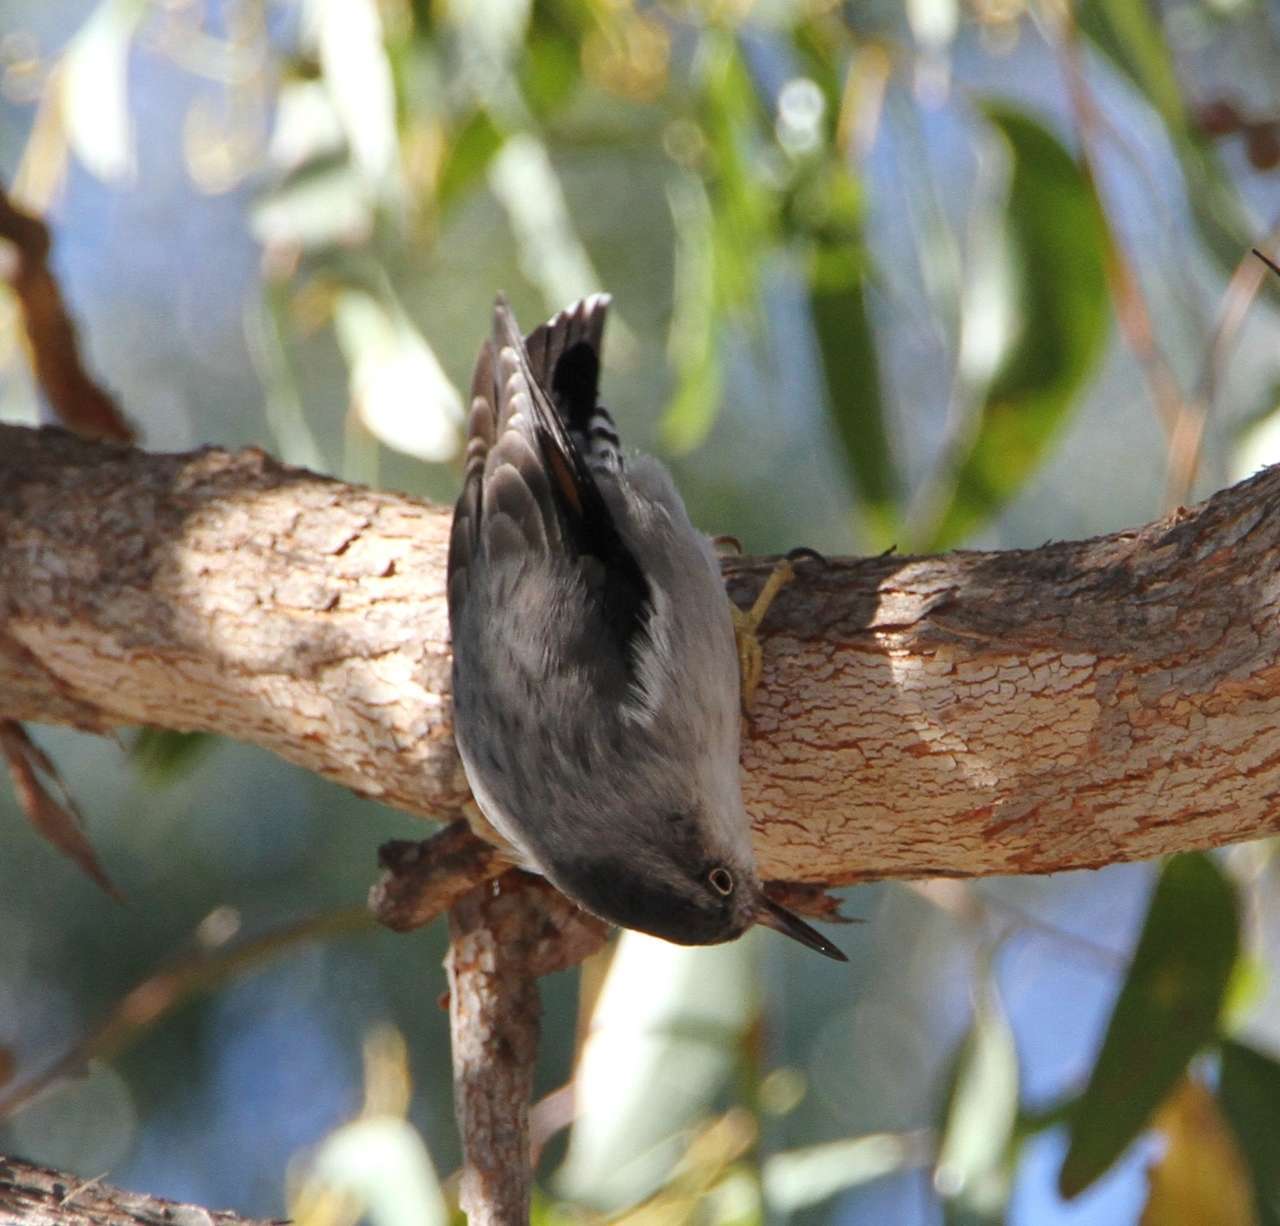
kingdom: Animalia
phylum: Chordata
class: Aves
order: Passeriformes
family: Neosittidae
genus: Daphoenositta
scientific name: Daphoenositta chrysoptera
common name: Varied sittella
